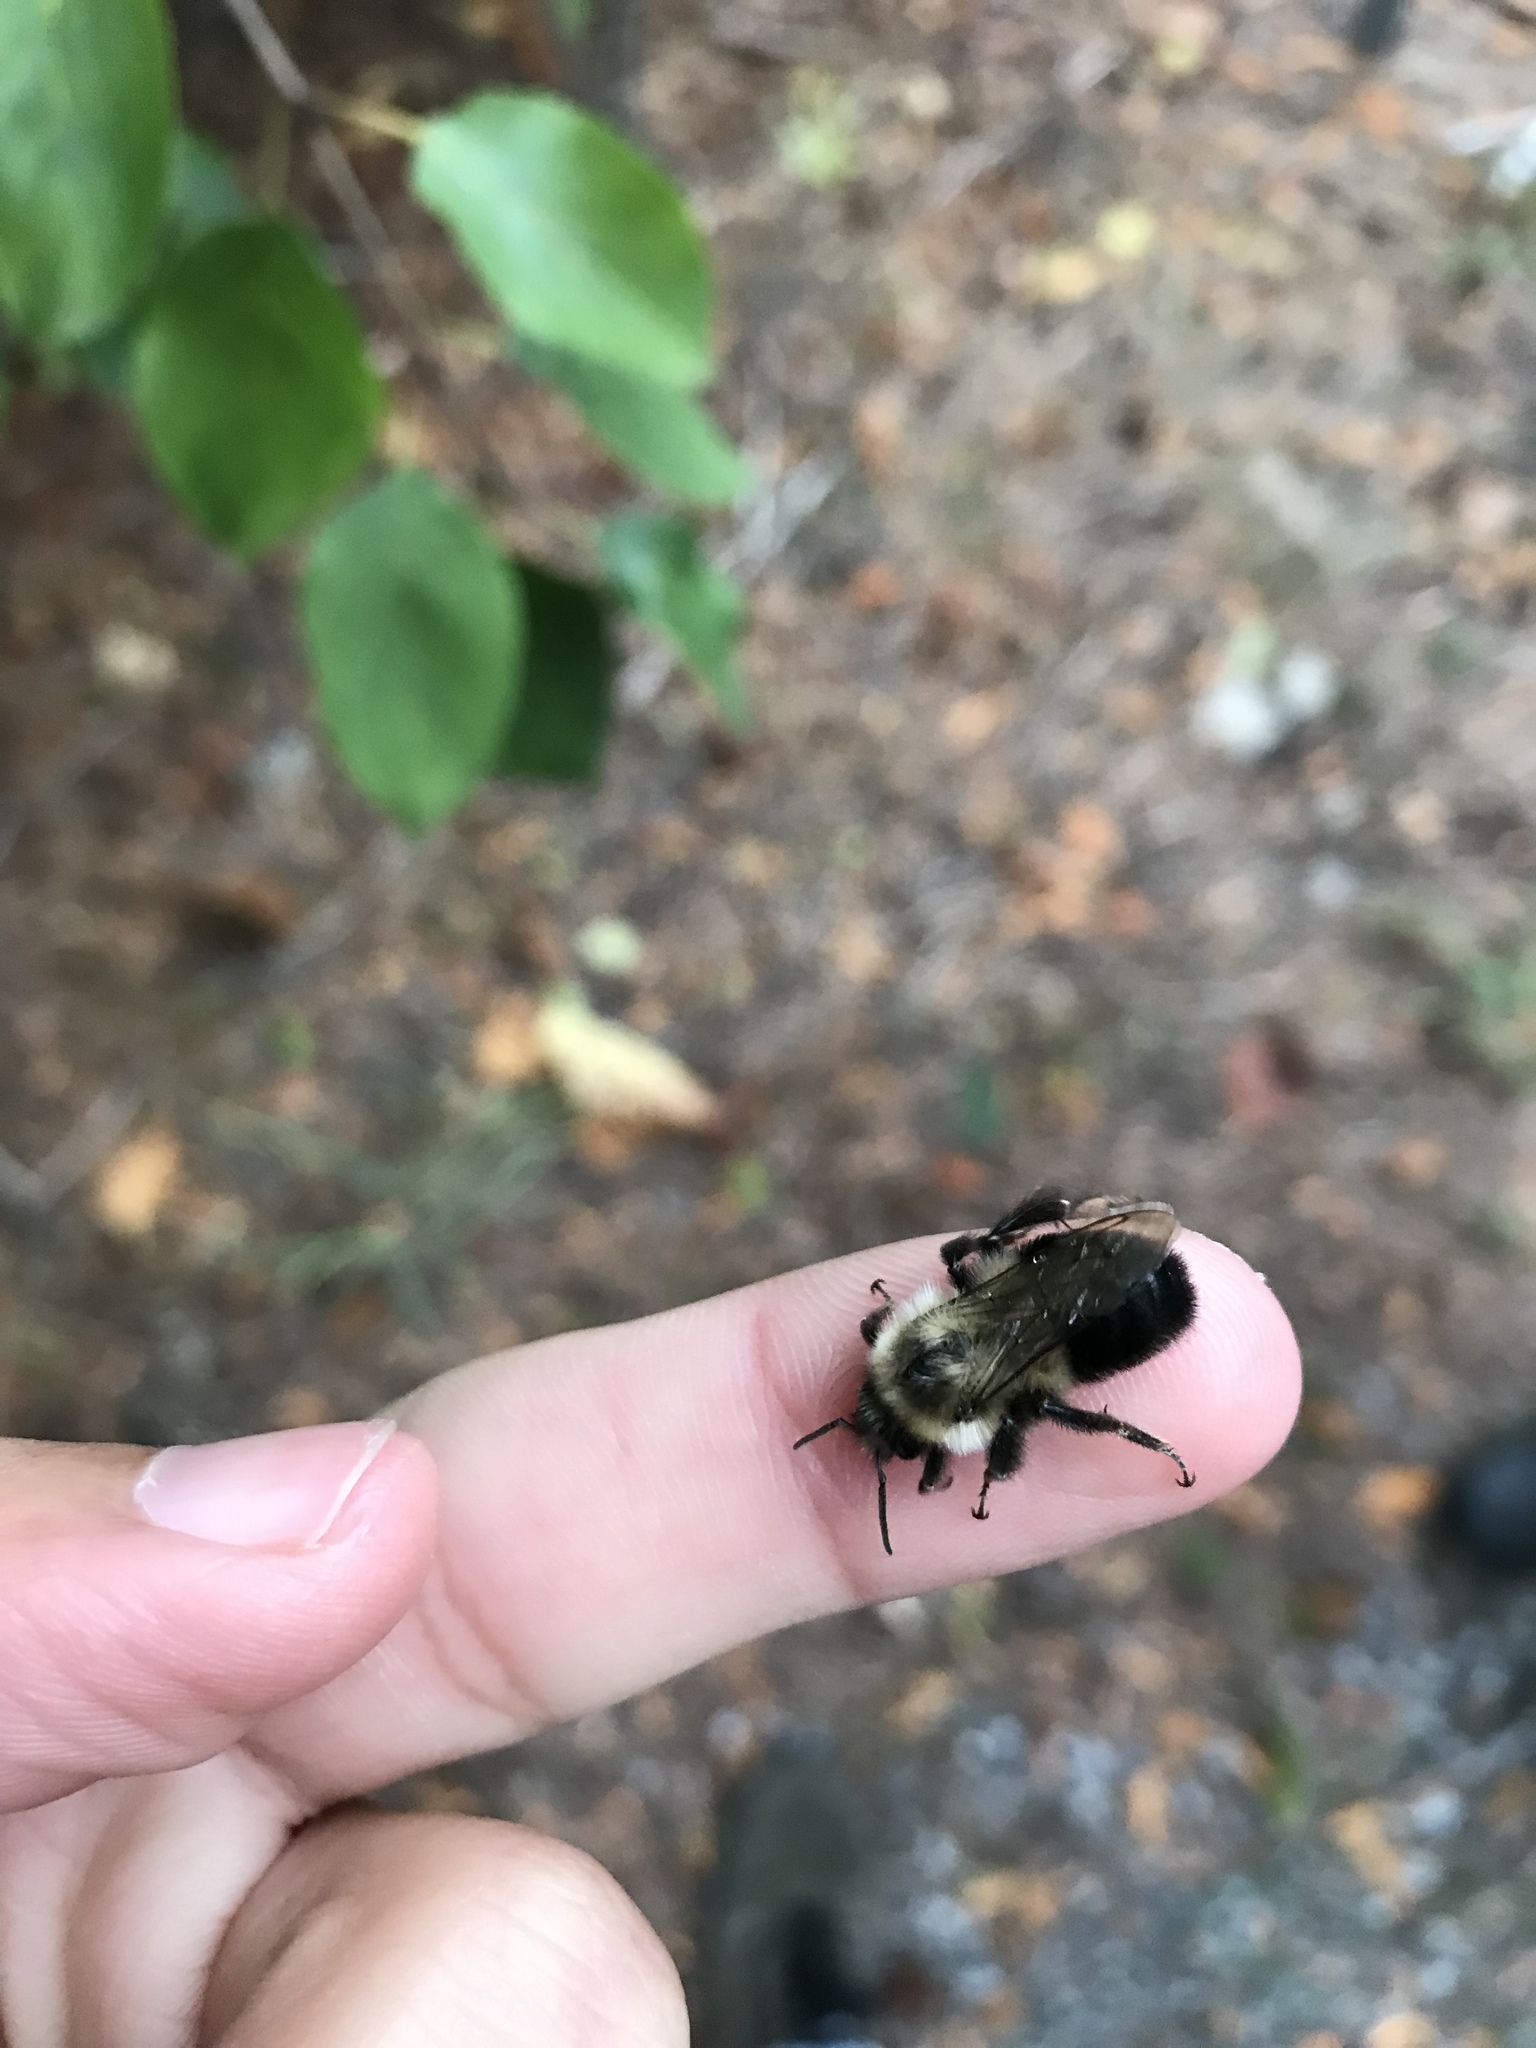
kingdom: Animalia
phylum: Arthropoda
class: Insecta
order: Hymenoptera
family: Apidae
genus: Bombus
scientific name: Bombus impatiens
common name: Common eastern bumble bee
